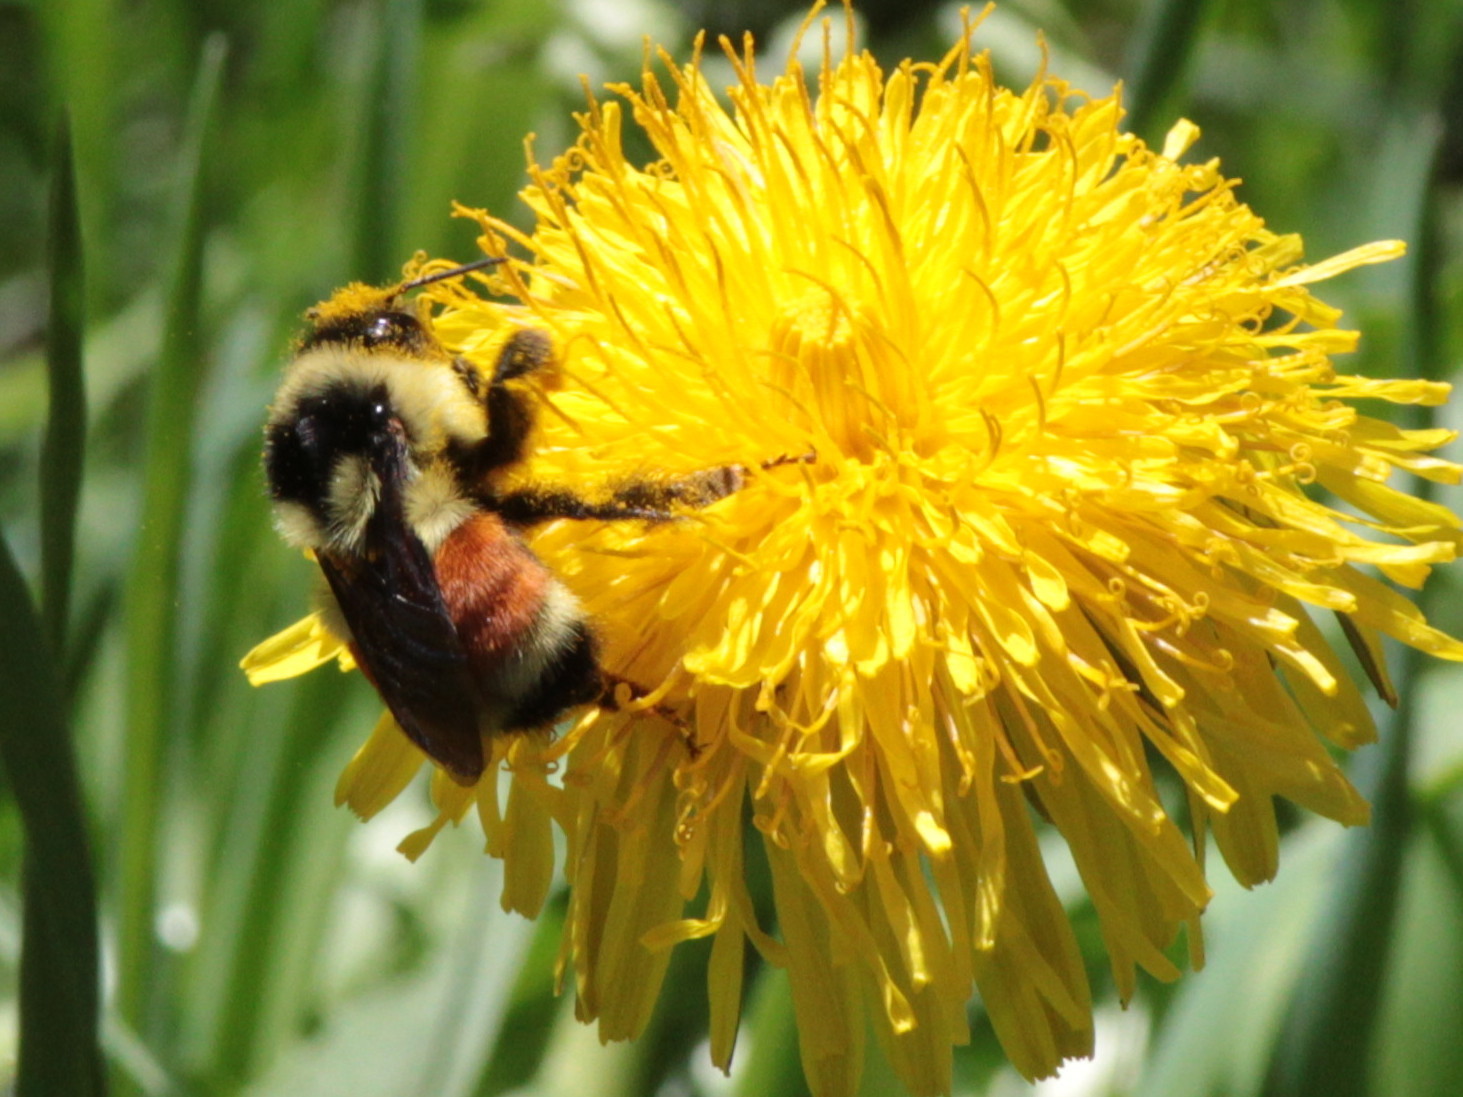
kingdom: Animalia
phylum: Arthropoda
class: Insecta
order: Hymenoptera
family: Apidae
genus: Bombus
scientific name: Bombus ternarius
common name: Tri-colored bumble bee
